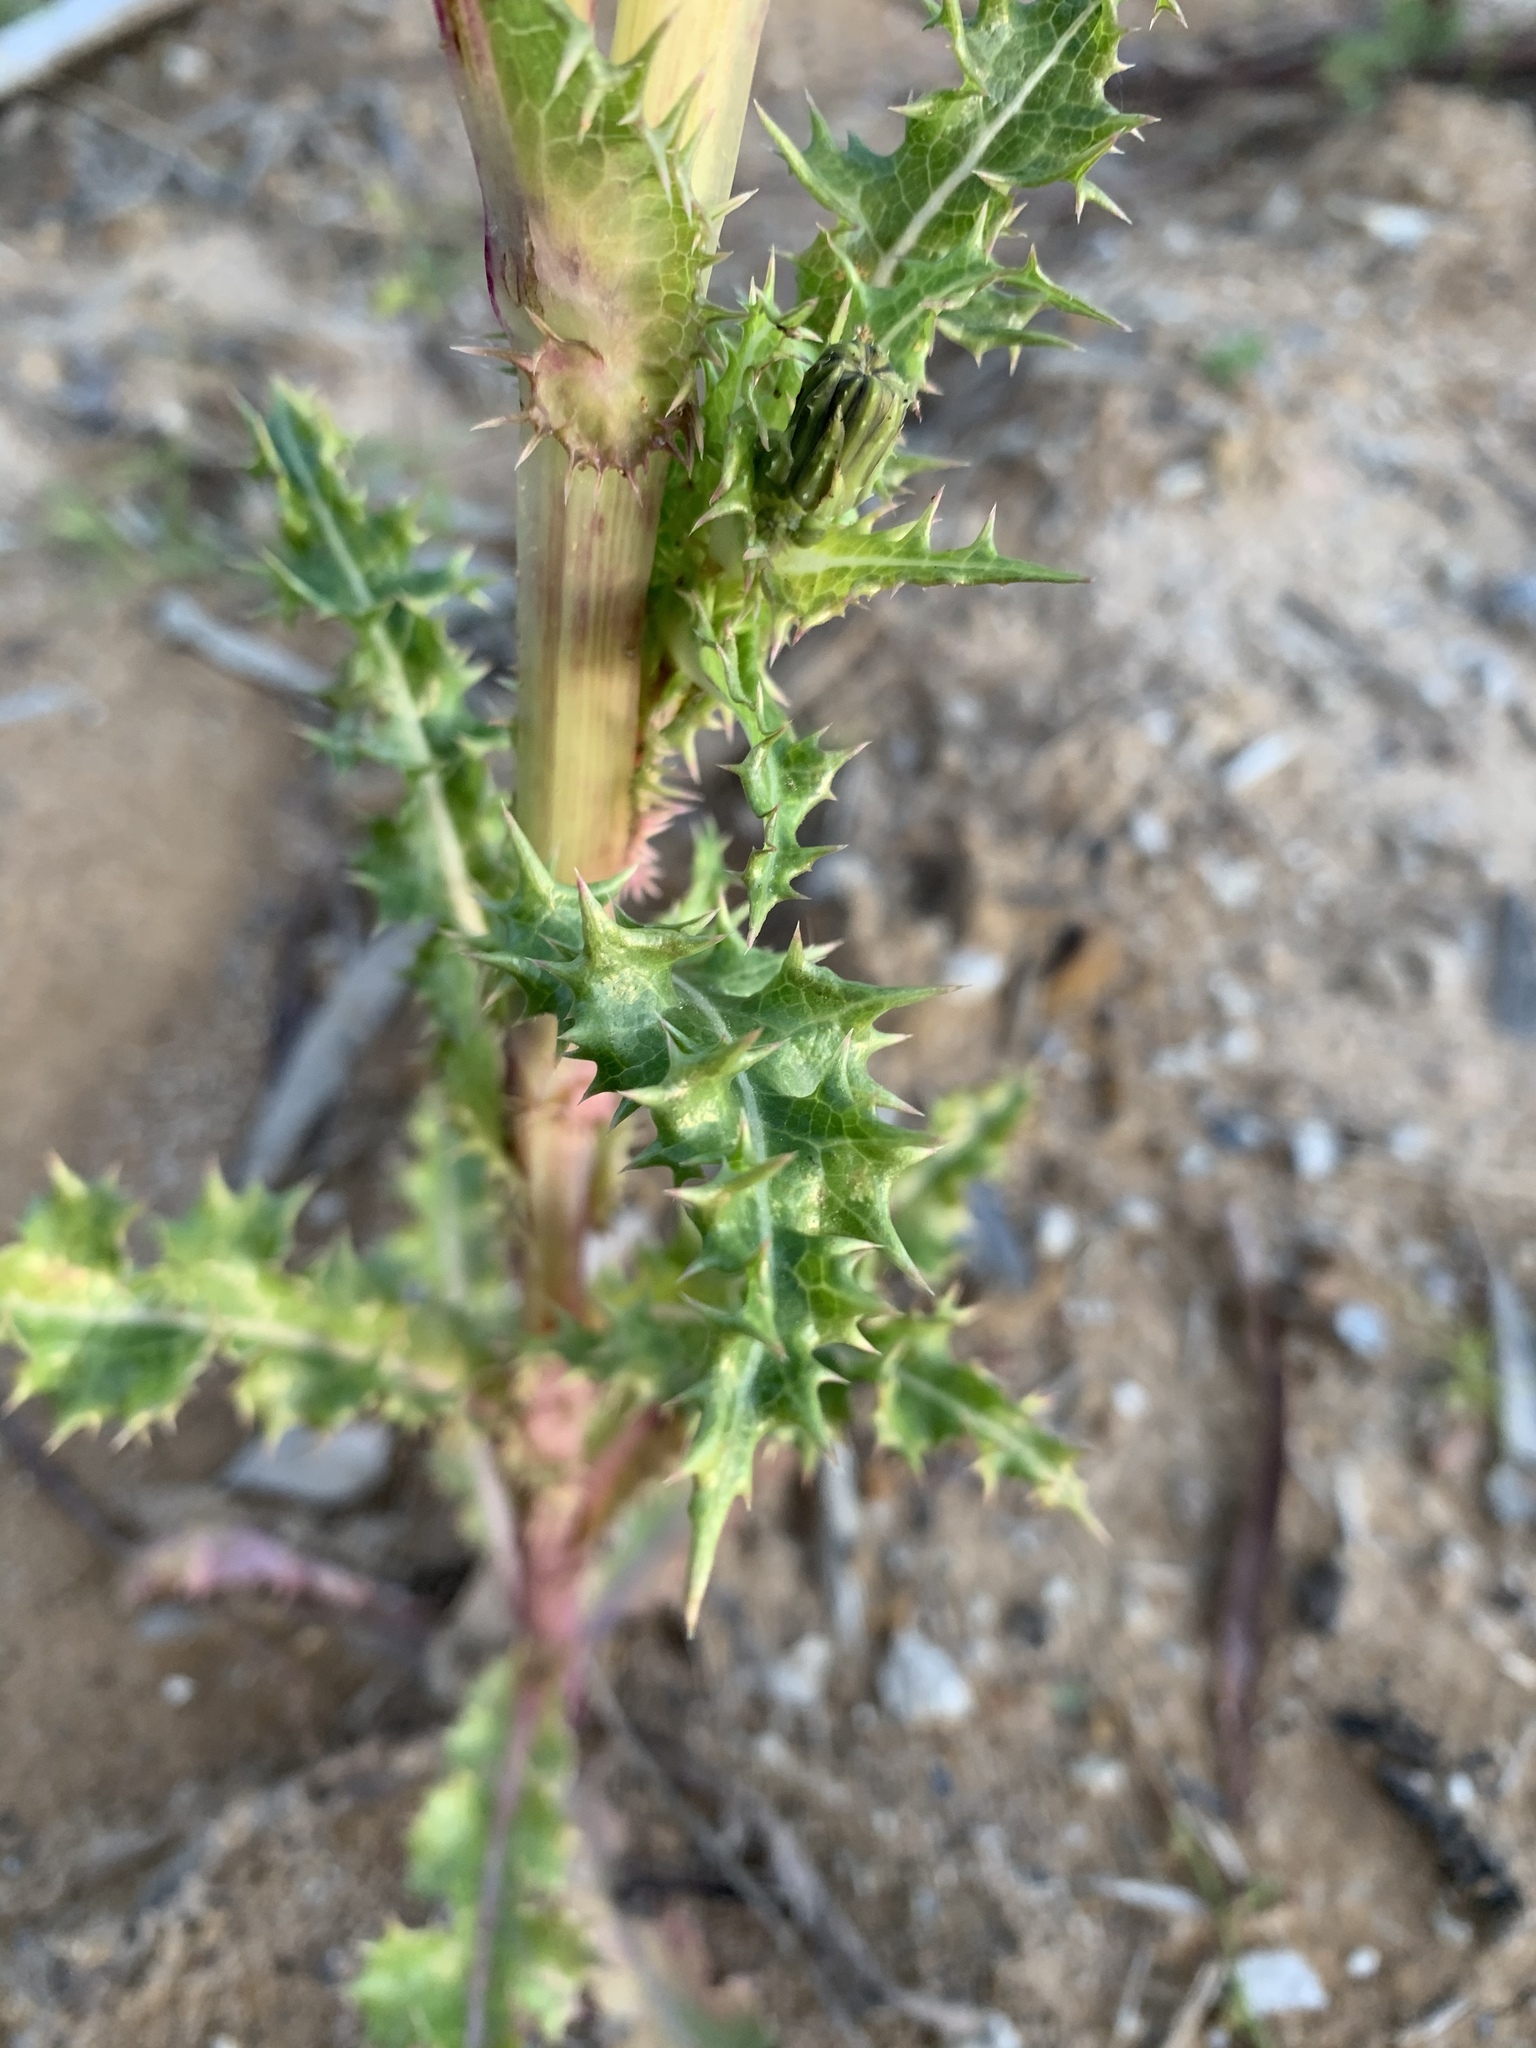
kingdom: Plantae
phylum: Tracheophyta
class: Magnoliopsida
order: Asterales
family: Asteraceae
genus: Sonchus
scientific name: Sonchus asper
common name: Prickly sow-thistle
